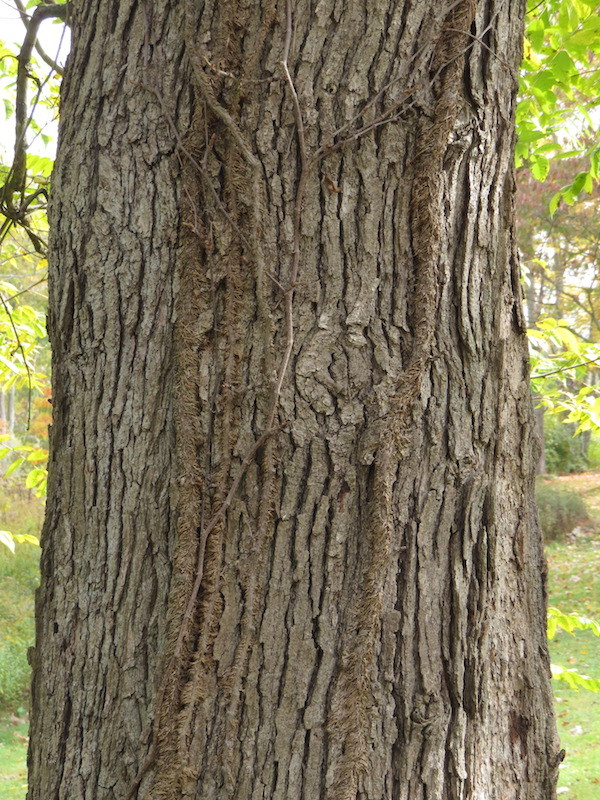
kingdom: Plantae
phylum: Tracheophyta
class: Magnoliopsida
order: Fagales
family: Fagaceae
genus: Quercus
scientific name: Quercus alba
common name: White oak
